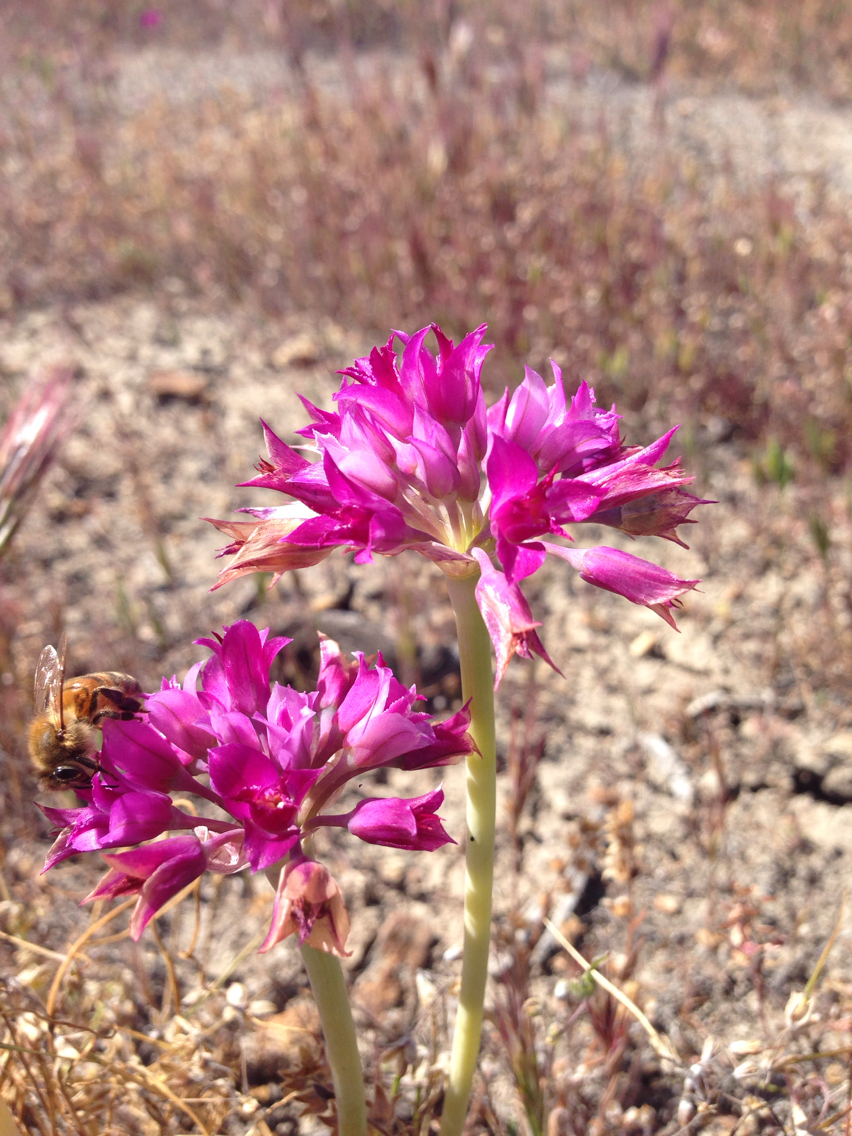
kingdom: Plantae
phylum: Tracheophyta
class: Liliopsida
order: Asparagales
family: Amaryllidaceae
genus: Allium
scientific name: Allium crispum
